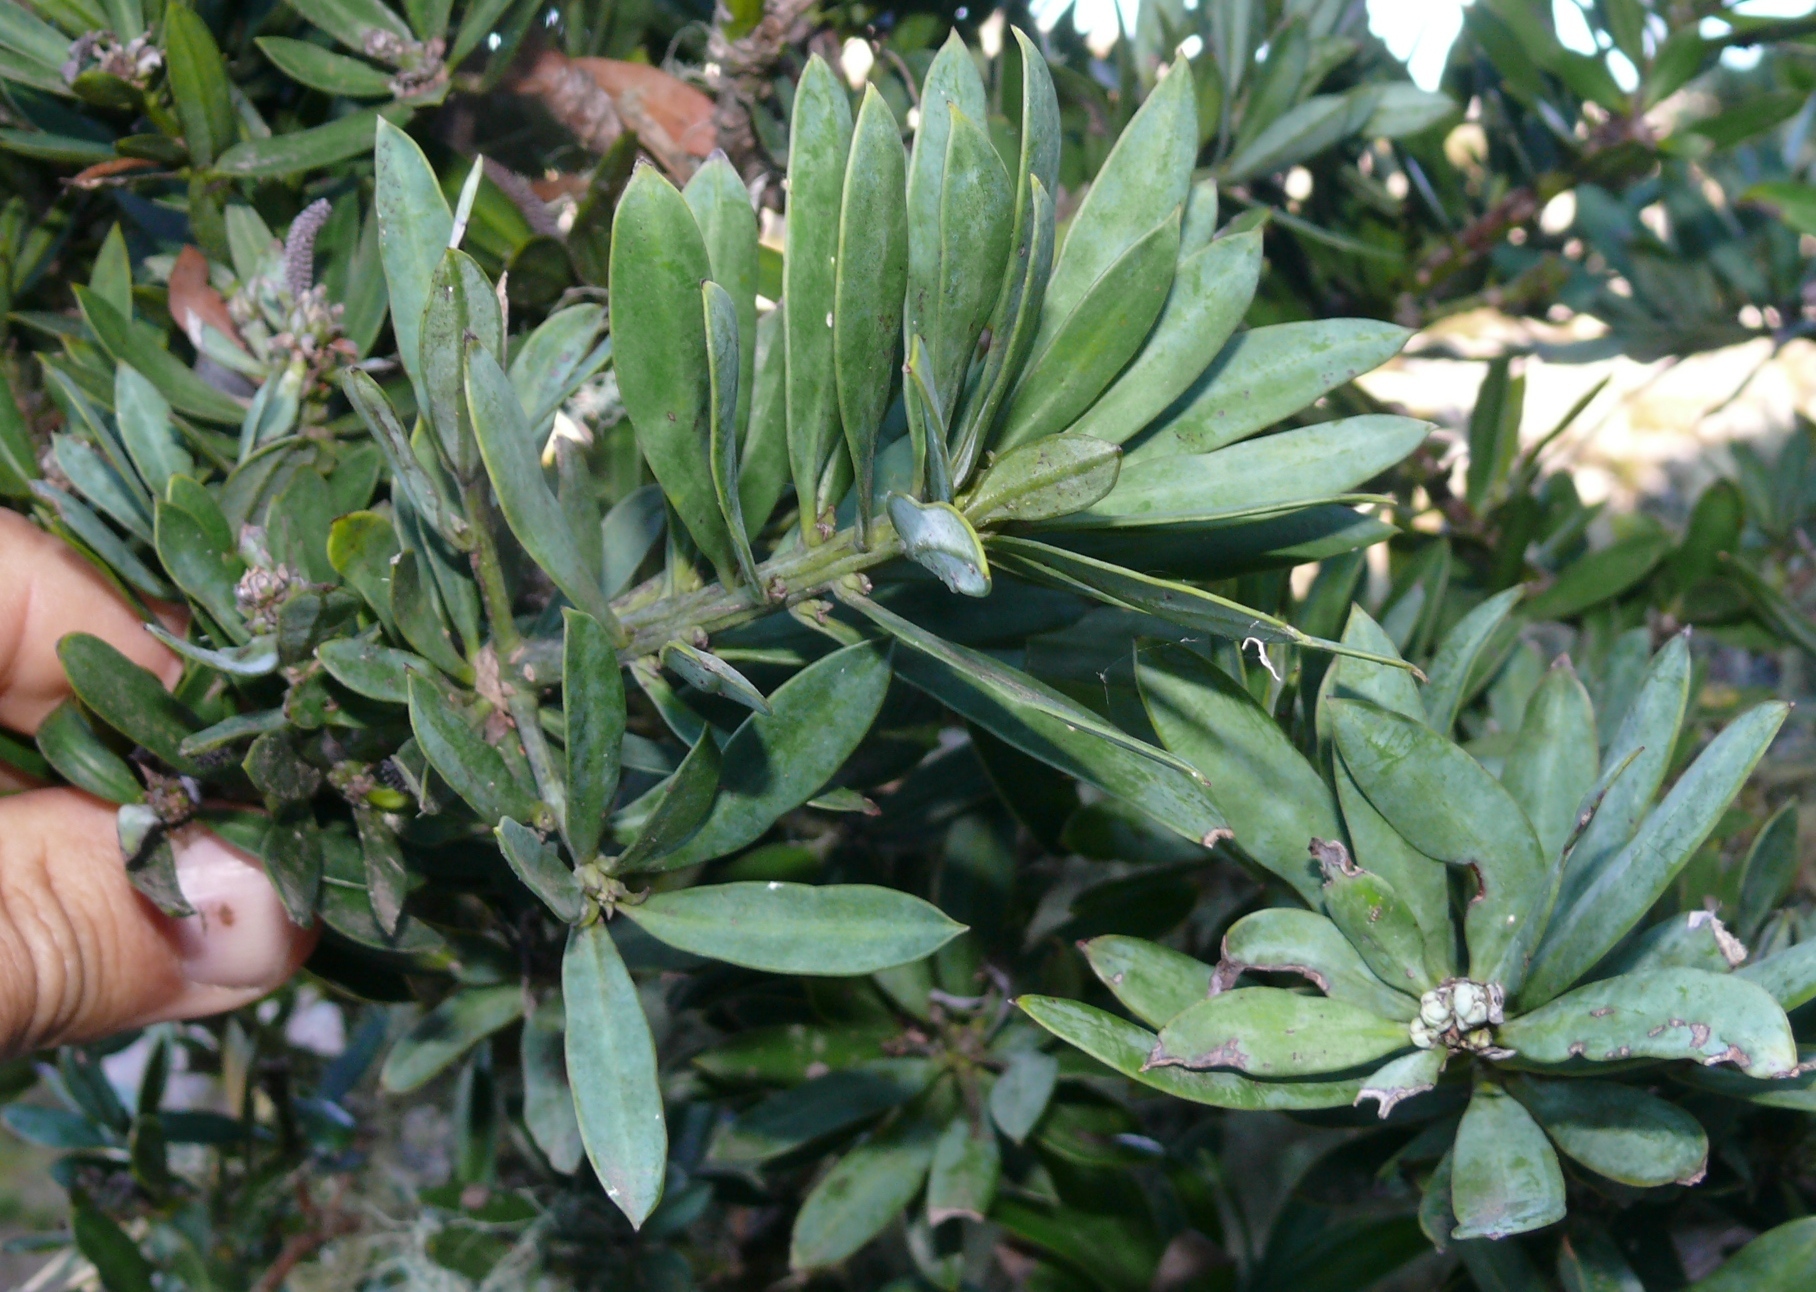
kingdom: Plantae
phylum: Tracheophyta
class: Pinopsida
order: Pinales
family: Podocarpaceae
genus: Podocarpus
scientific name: Podocarpus latifolius
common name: True yellowwood
